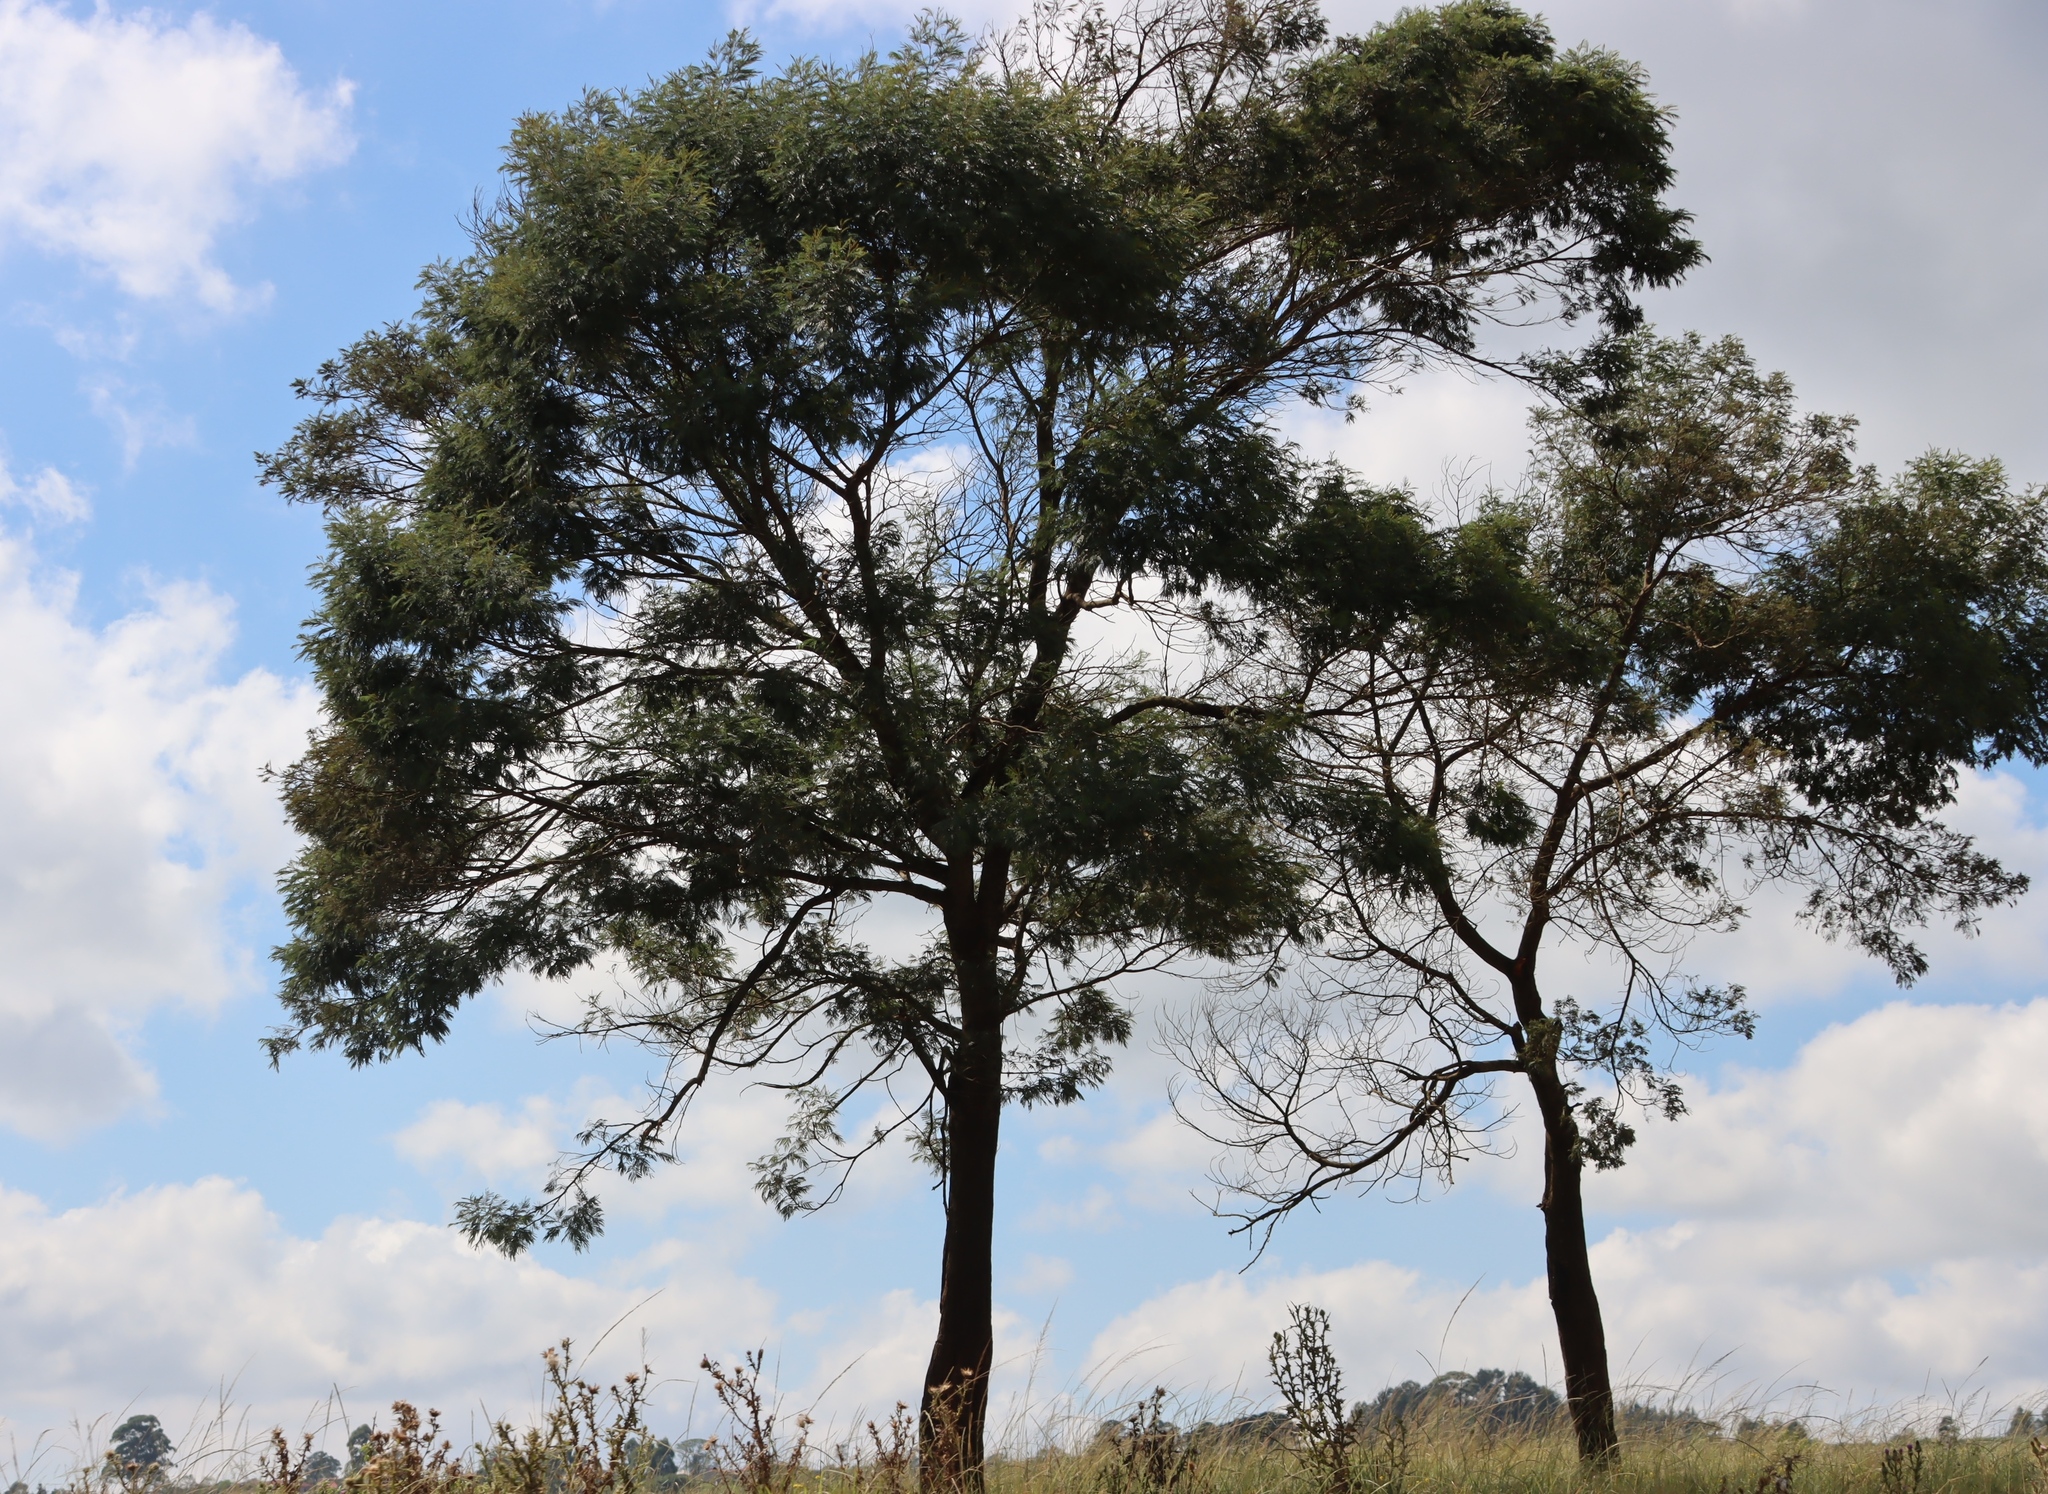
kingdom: Plantae
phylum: Tracheophyta
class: Magnoliopsida
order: Fabales
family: Fabaceae
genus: Acacia
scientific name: Acacia mearnsii
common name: Black wattle
